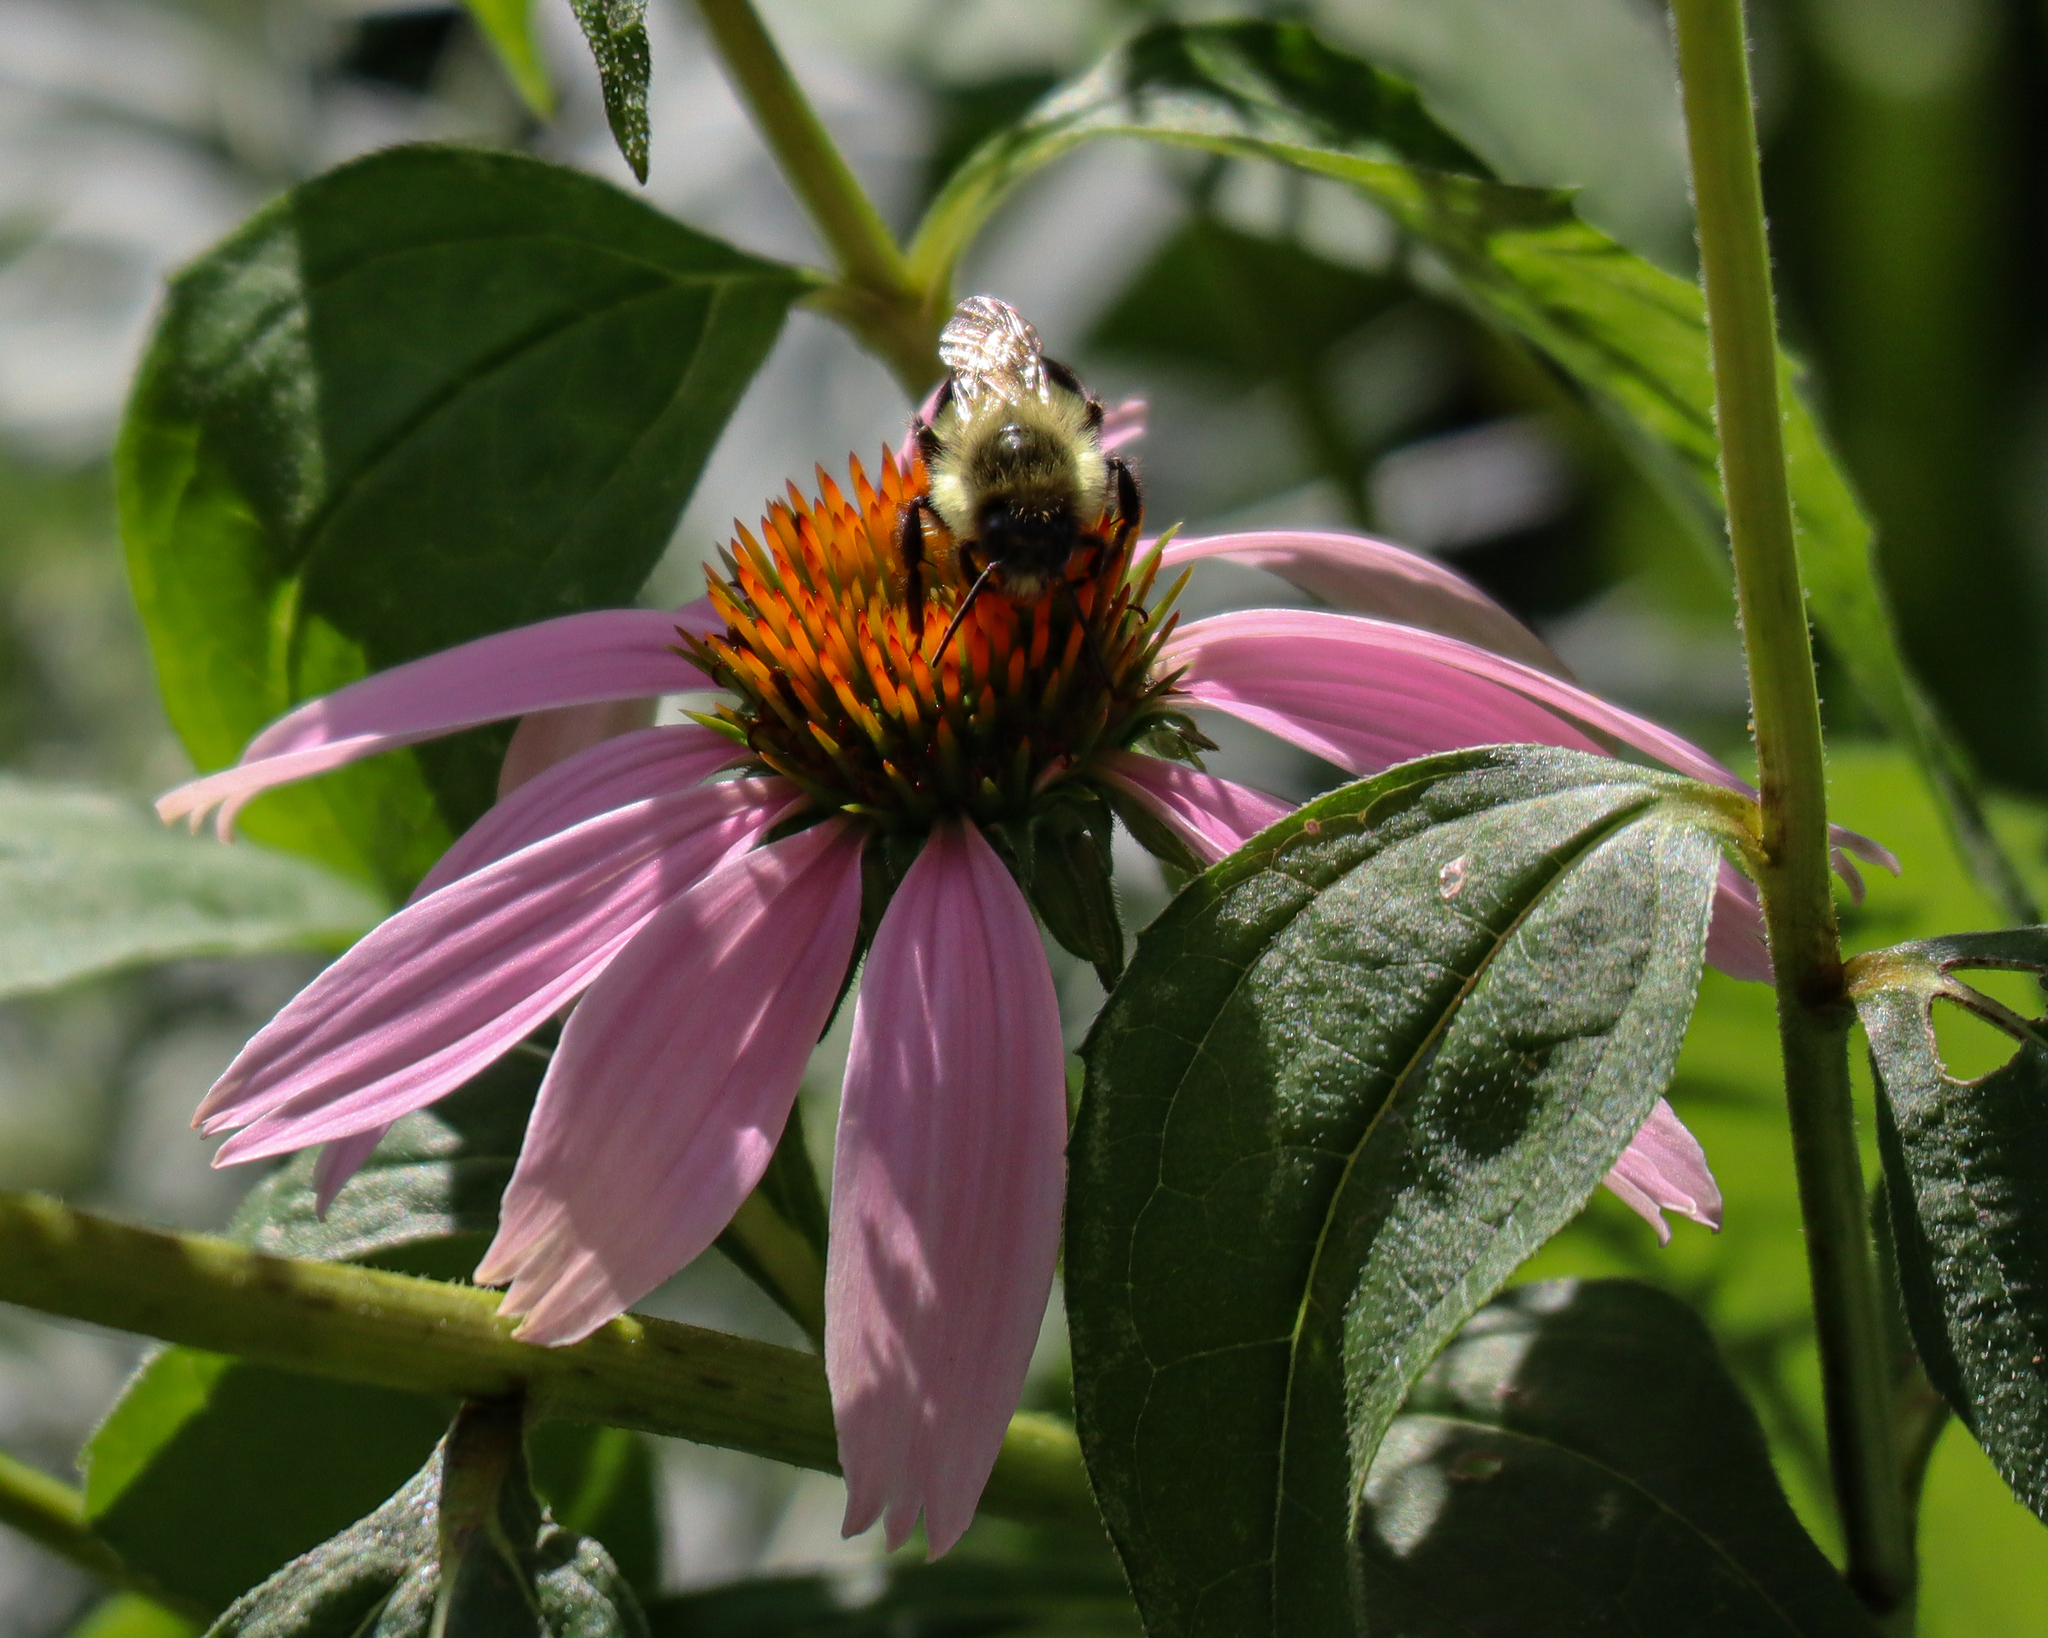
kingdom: Animalia
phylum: Arthropoda
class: Insecta
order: Hymenoptera
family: Apidae
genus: Bombus
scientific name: Bombus impatiens
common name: Common eastern bumble bee
